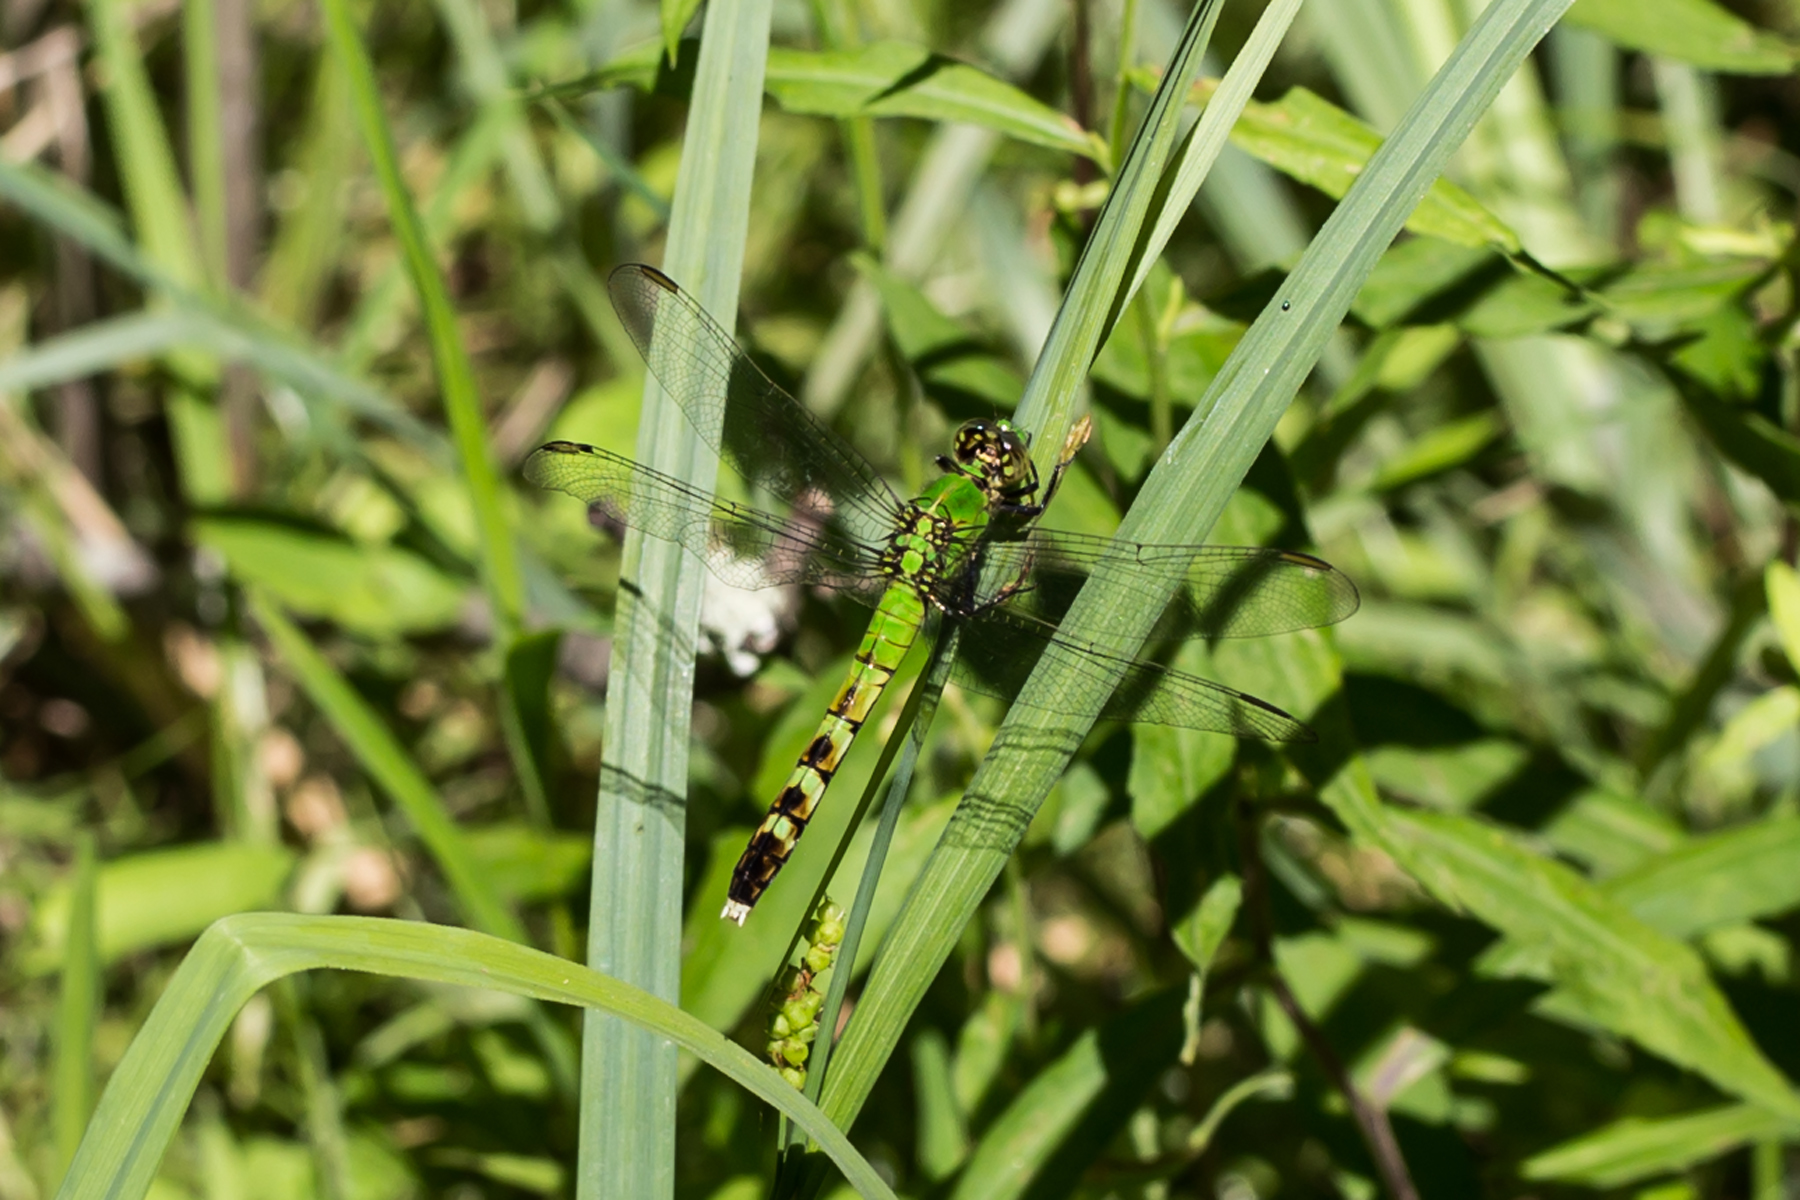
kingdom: Animalia
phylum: Arthropoda
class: Insecta
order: Odonata
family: Libellulidae
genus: Erythemis
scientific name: Erythemis simplicicollis
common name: Eastern pondhawk
